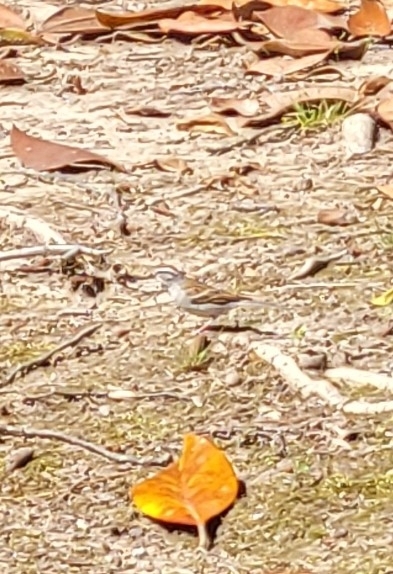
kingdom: Animalia
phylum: Chordata
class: Aves
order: Passeriformes
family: Passerellidae
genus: Spizella
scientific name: Spizella passerina
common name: Chipping sparrow
